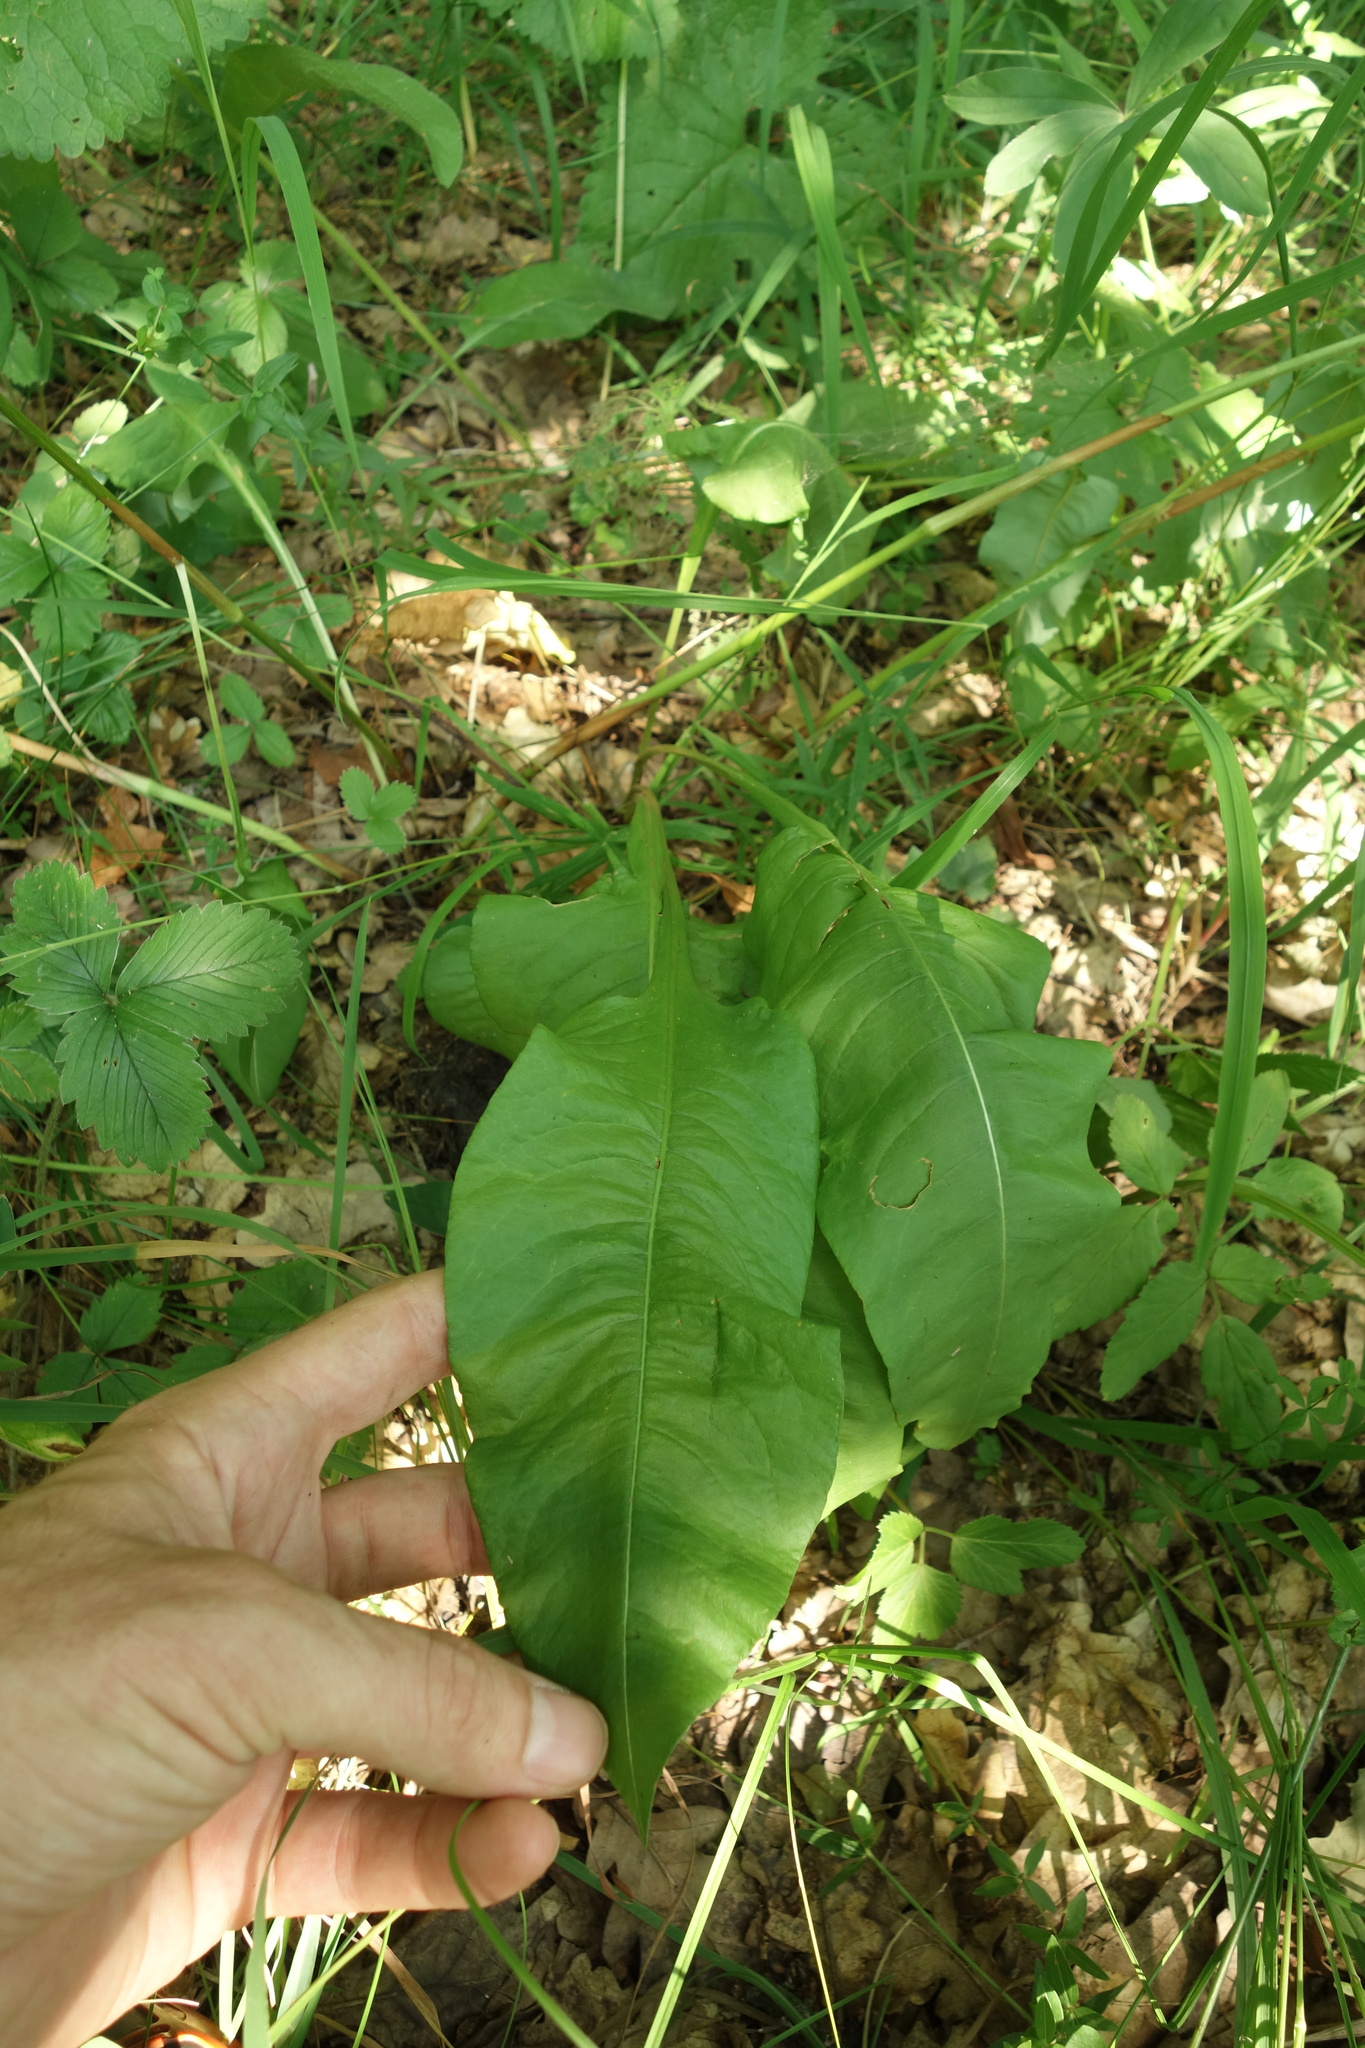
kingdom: Plantae
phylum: Tracheophyta
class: Magnoliopsida
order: Caryophyllales
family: Polygonaceae
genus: Bistorta
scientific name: Bistorta officinalis
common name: Common bistort
